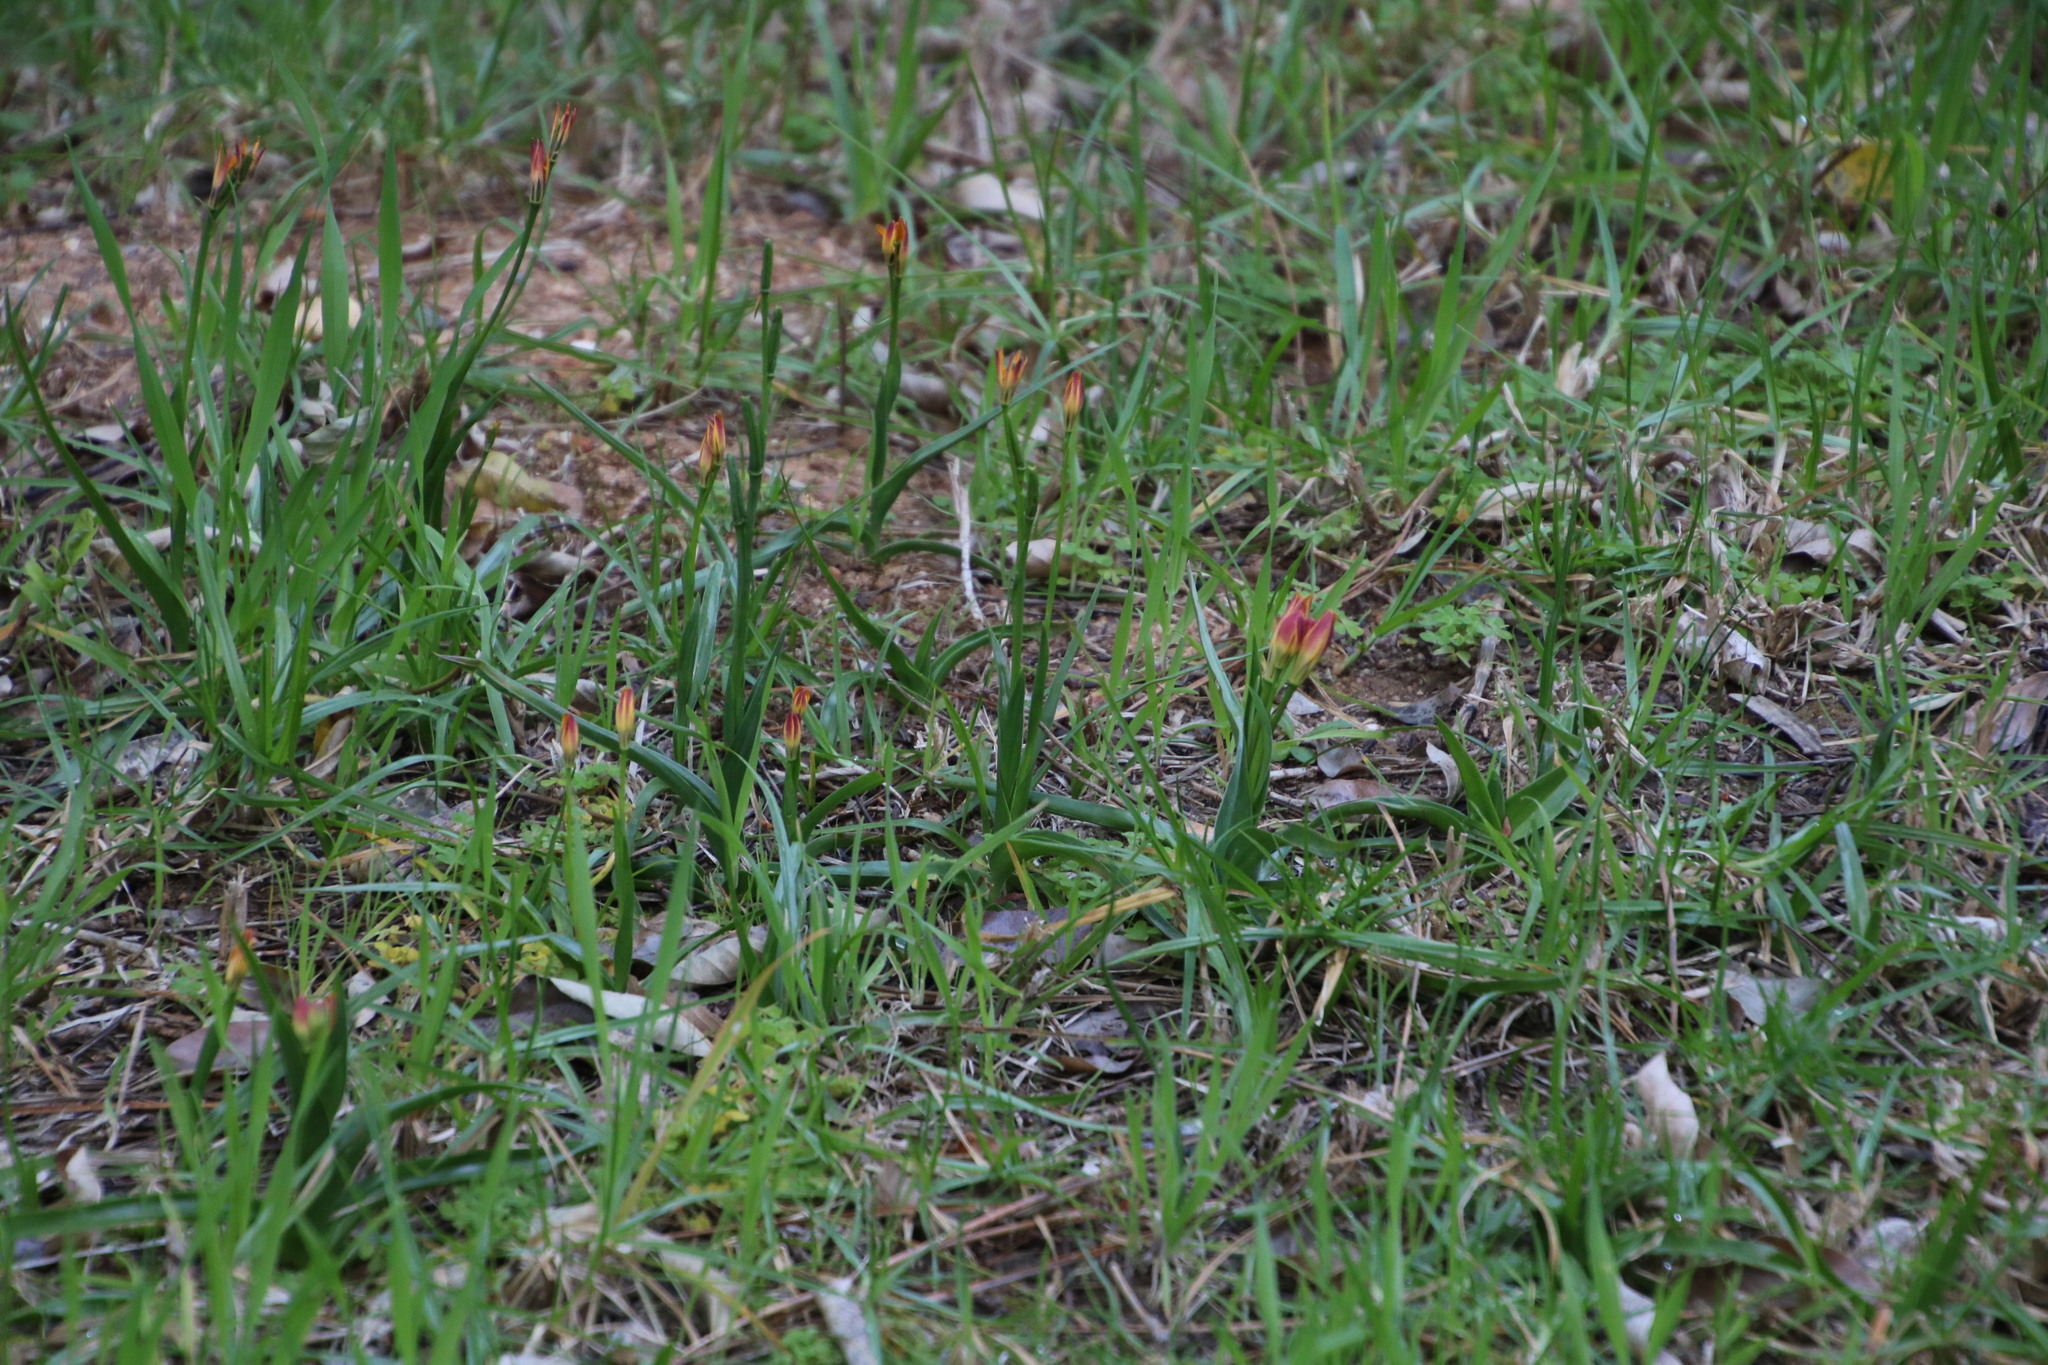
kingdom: Plantae
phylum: Tracheophyta
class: Liliopsida
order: Liliales
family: Colchicaceae
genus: Baeometra
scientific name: Baeometra uniflora
